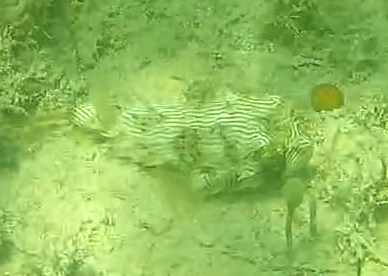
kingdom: Animalia
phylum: Chordata
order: Tetraodontiformes
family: Diodontidae
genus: Chilomycterus
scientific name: Chilomycterus schoepfii
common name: Striped burrfish
